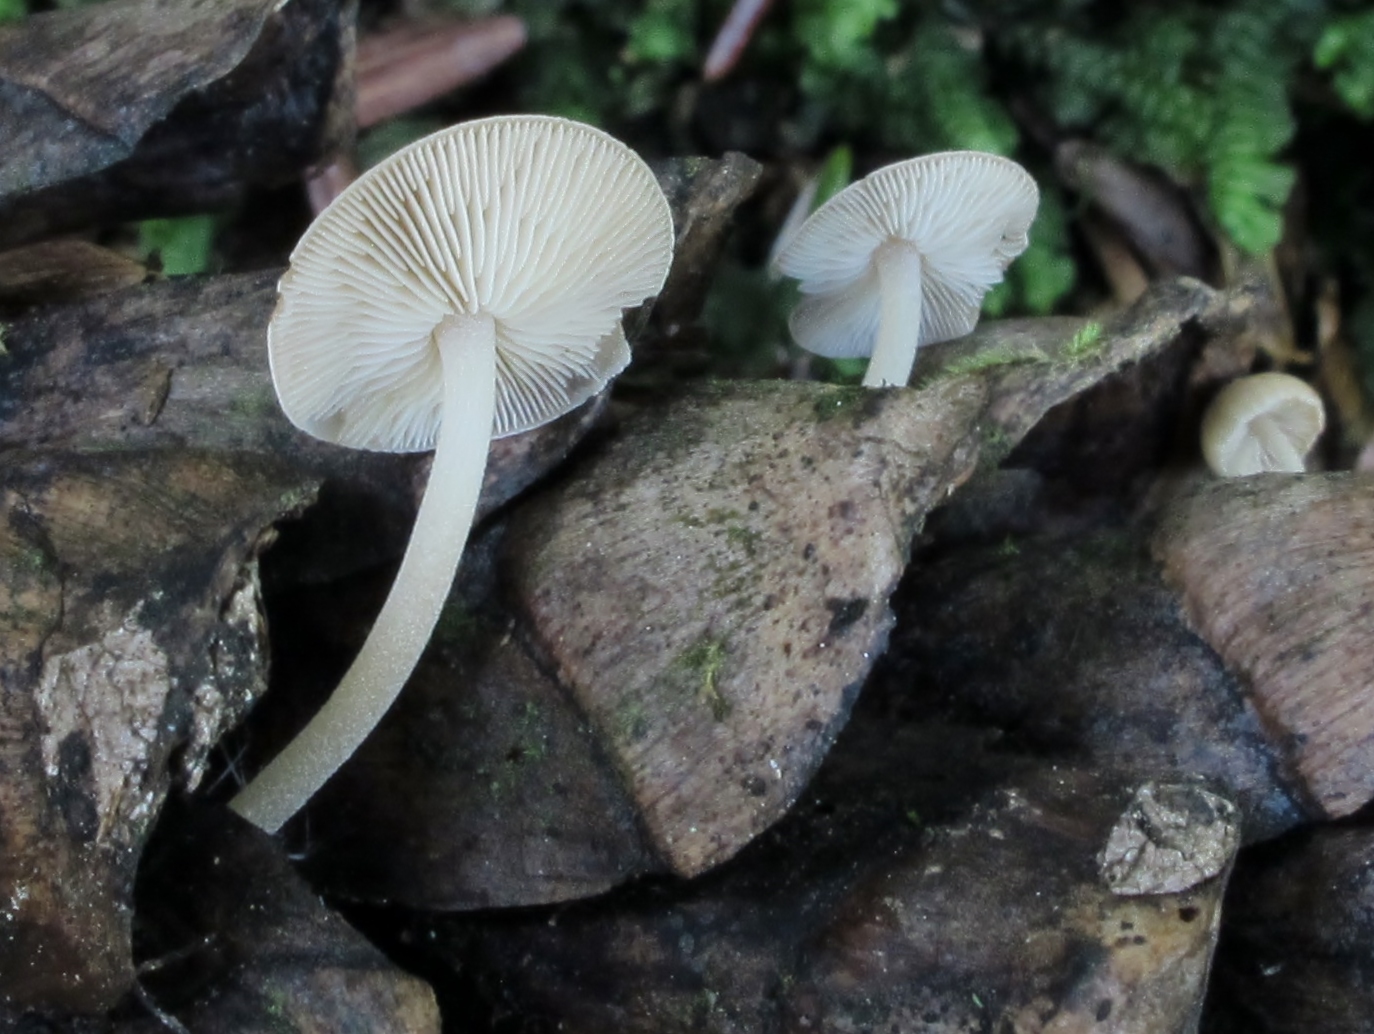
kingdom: Fungi
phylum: Basidiomycota
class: Agaricomycetes
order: Agaricales
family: Marasmiaceae
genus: Baeospora
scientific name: Baeospora myosura
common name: Conifercone cap
